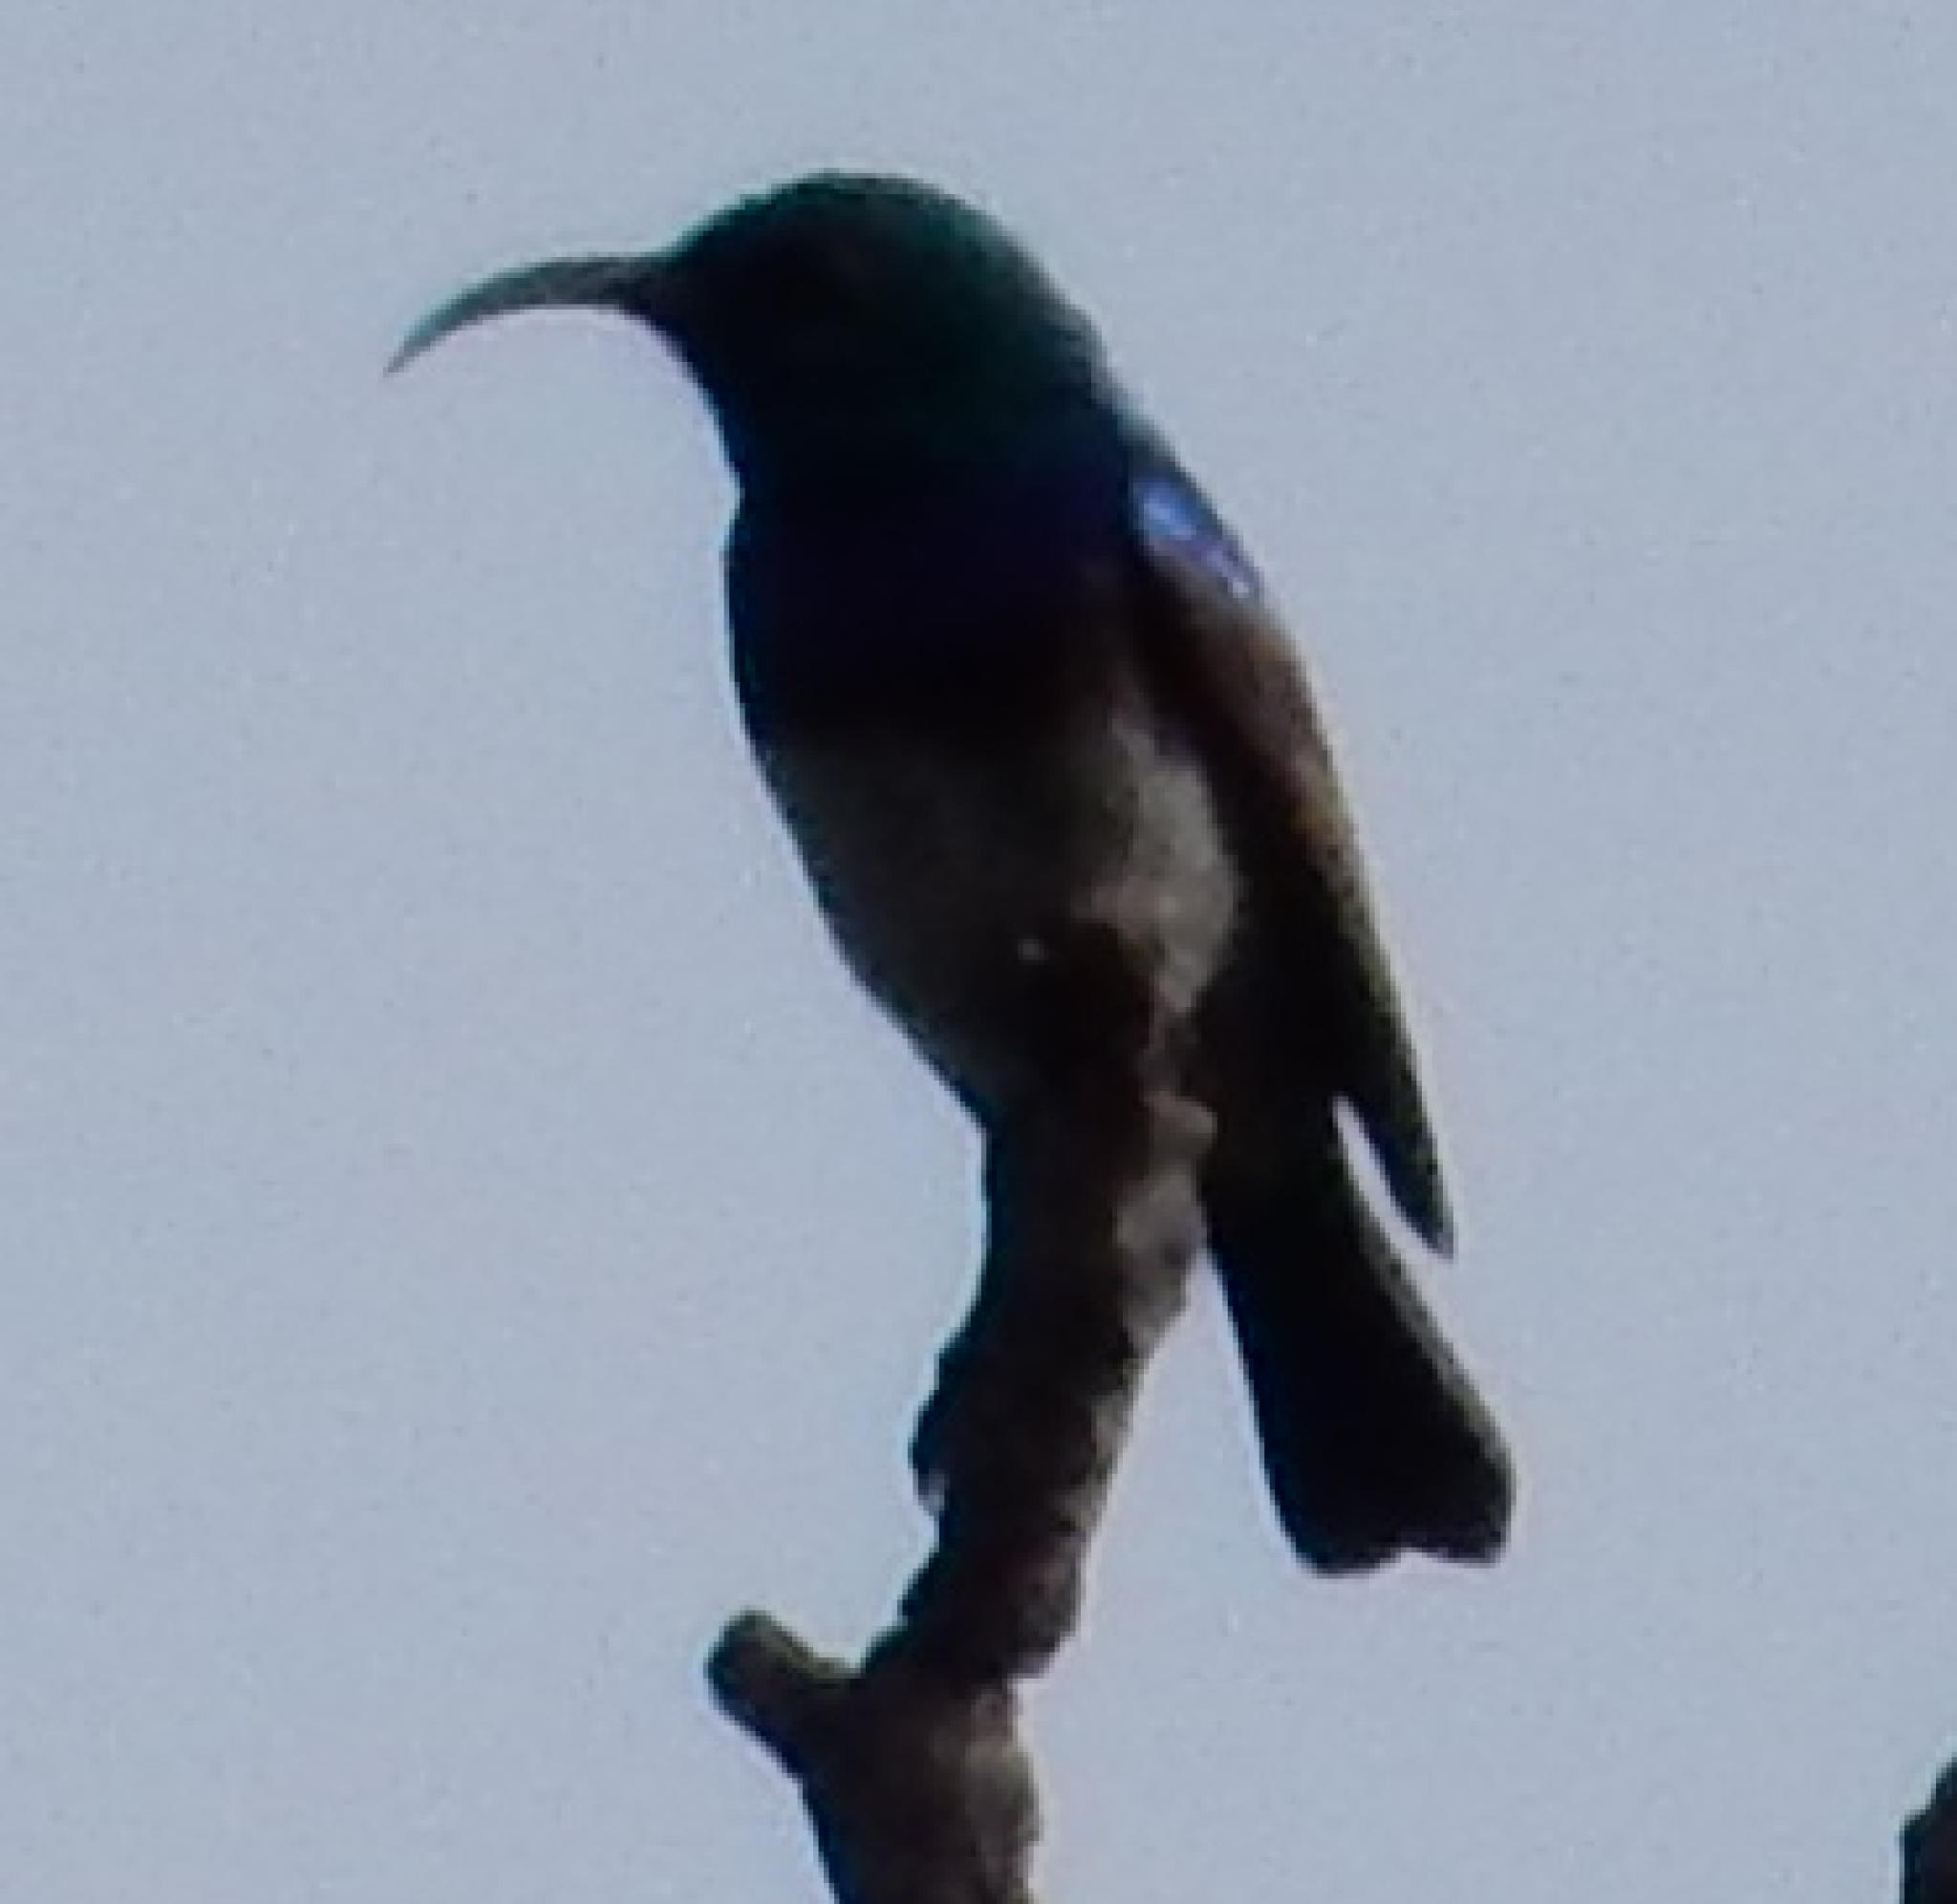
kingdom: Animalia
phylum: Chordata
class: Aves
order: Passeriformes
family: Nectariniidae
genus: Cinnyris
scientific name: Cinnyris talatala
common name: White-bellied sunbird
